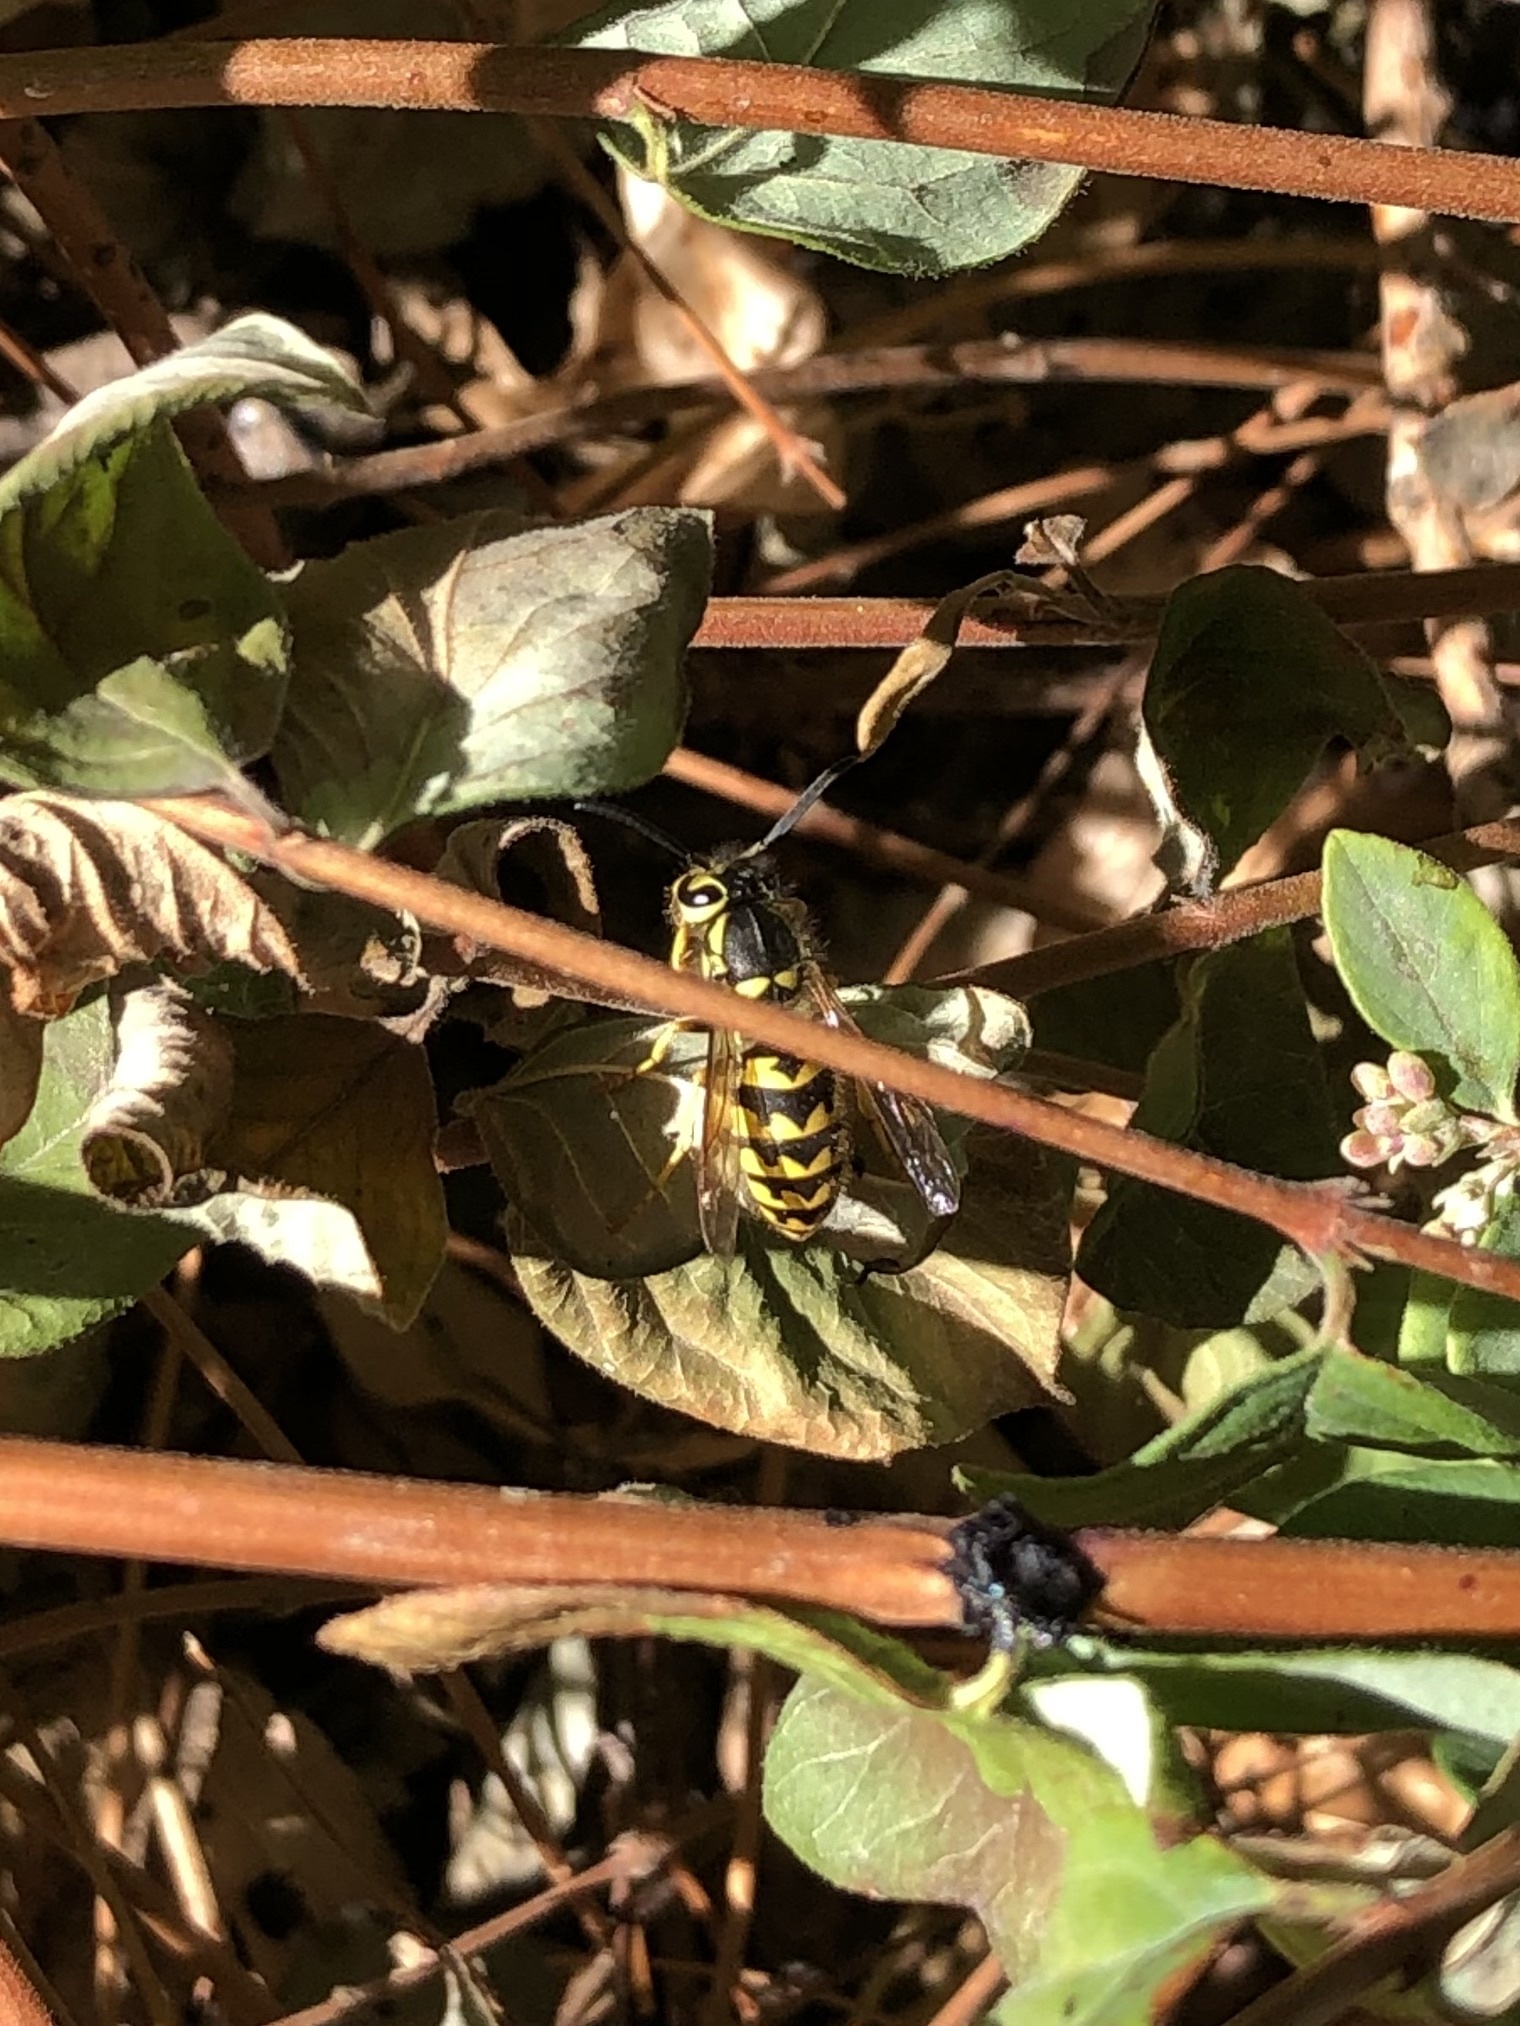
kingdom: Animalia
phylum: Arthropoda
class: Insecta
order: Hymenoptera
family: Vespidae
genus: Vespula
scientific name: Vespula pensylvanica
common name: Western yellowjacket
